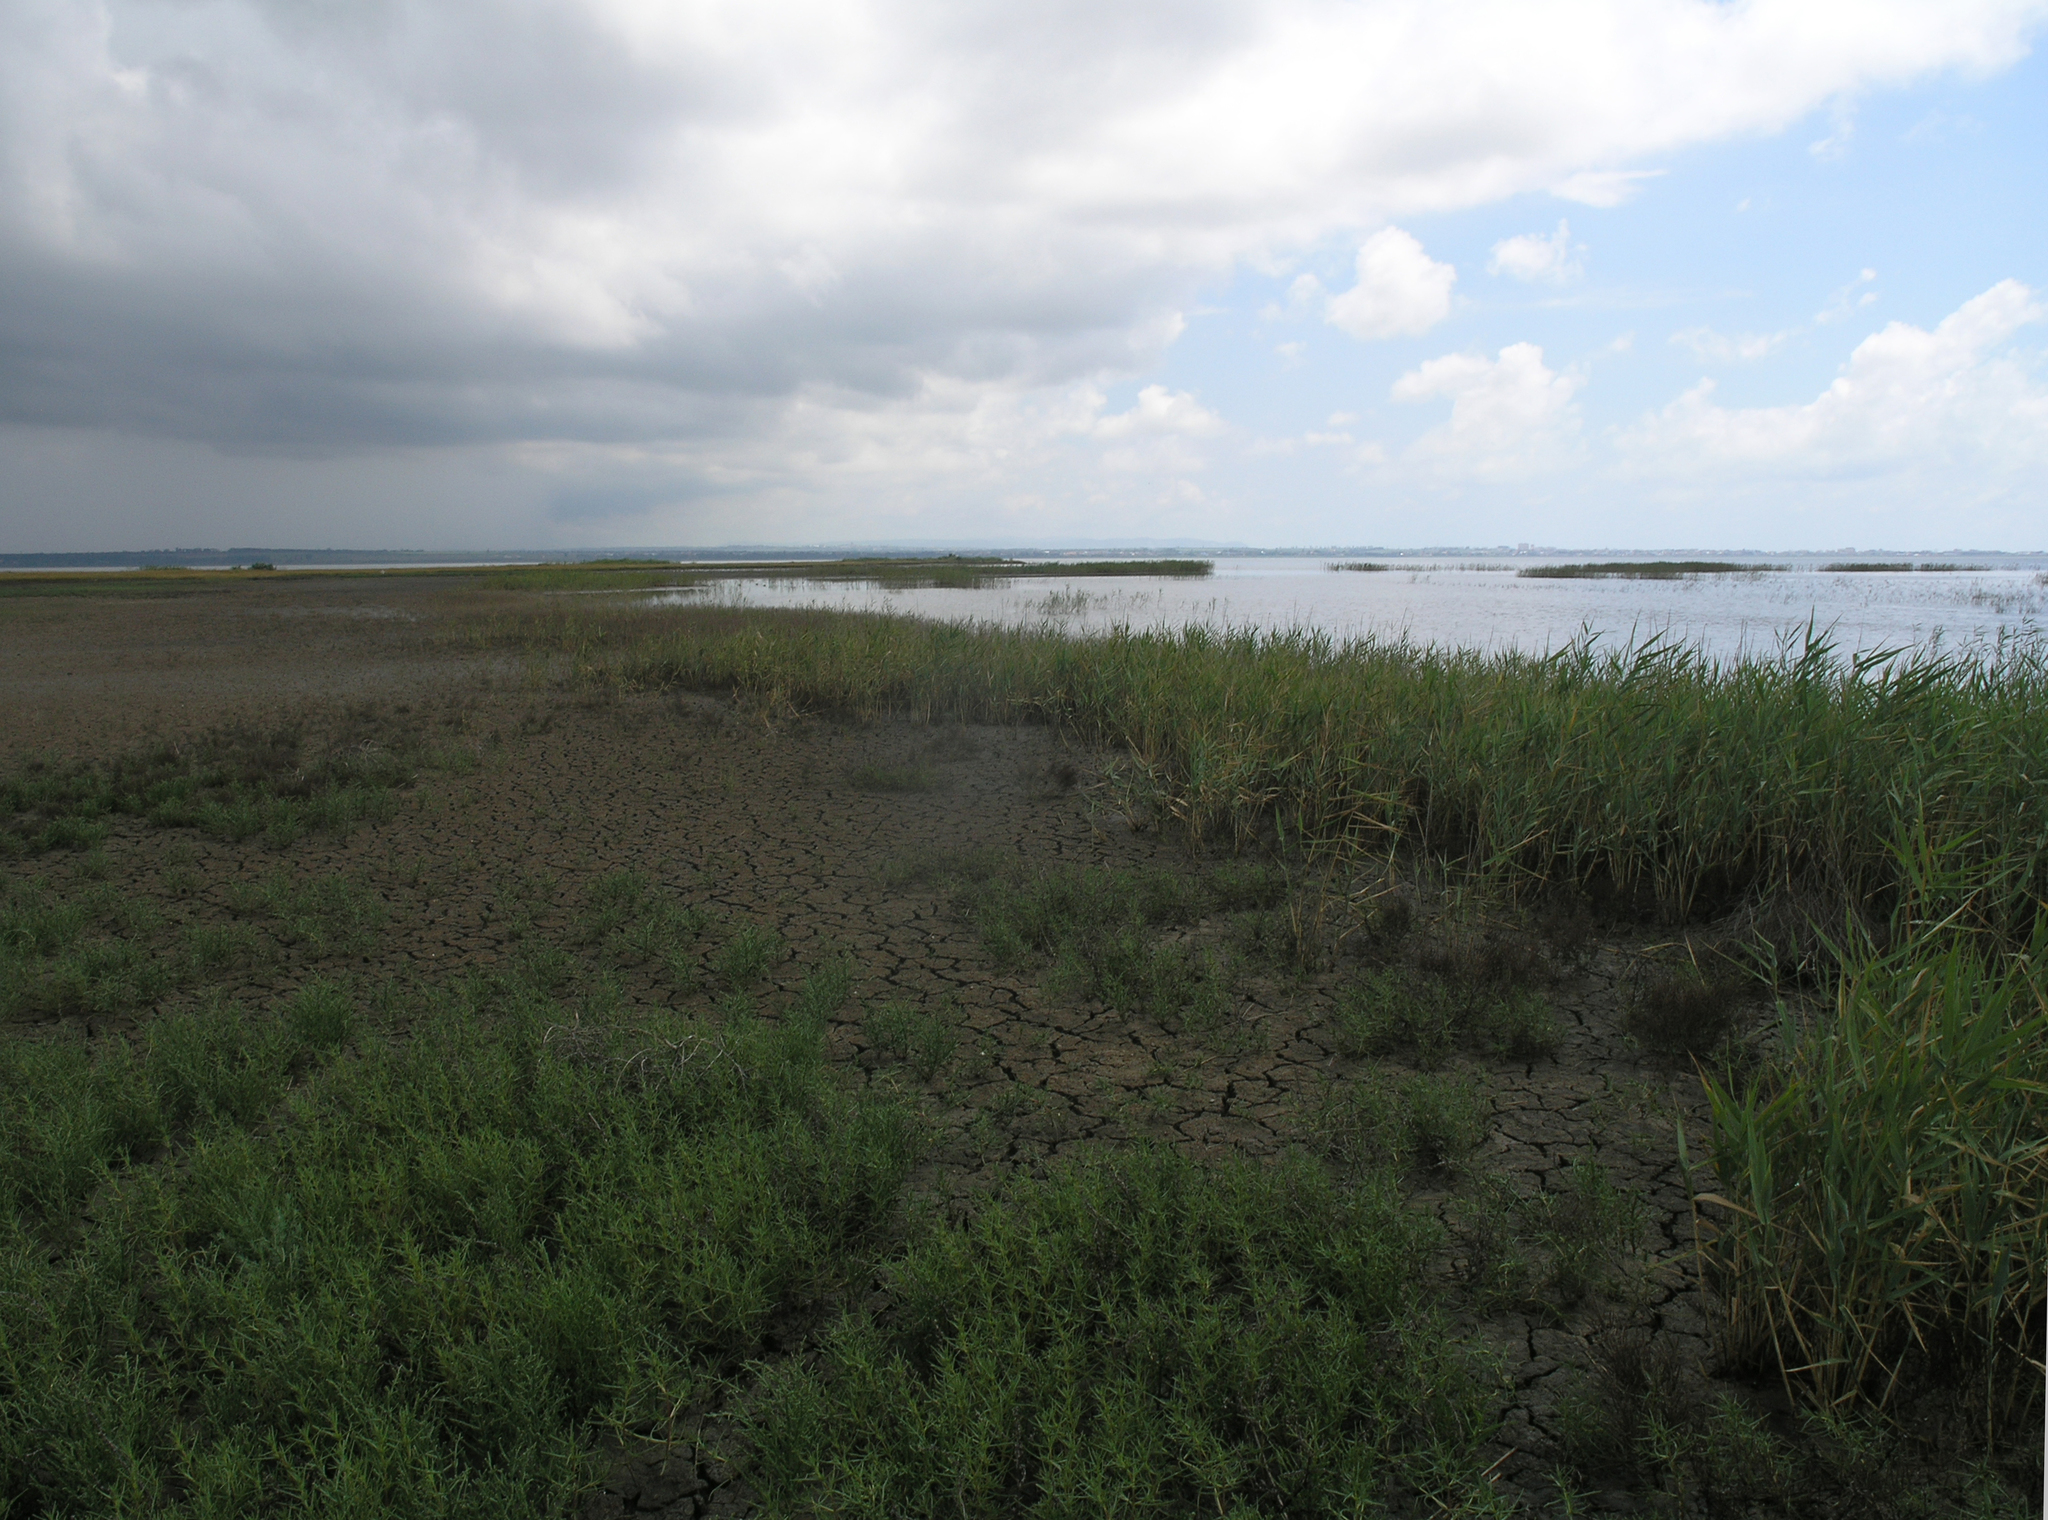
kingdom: Plantae
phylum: Tracheophyta
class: Liliopsida
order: Poales
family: Poaceae
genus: Phragmites
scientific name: Phragmites australis
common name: Common reed
